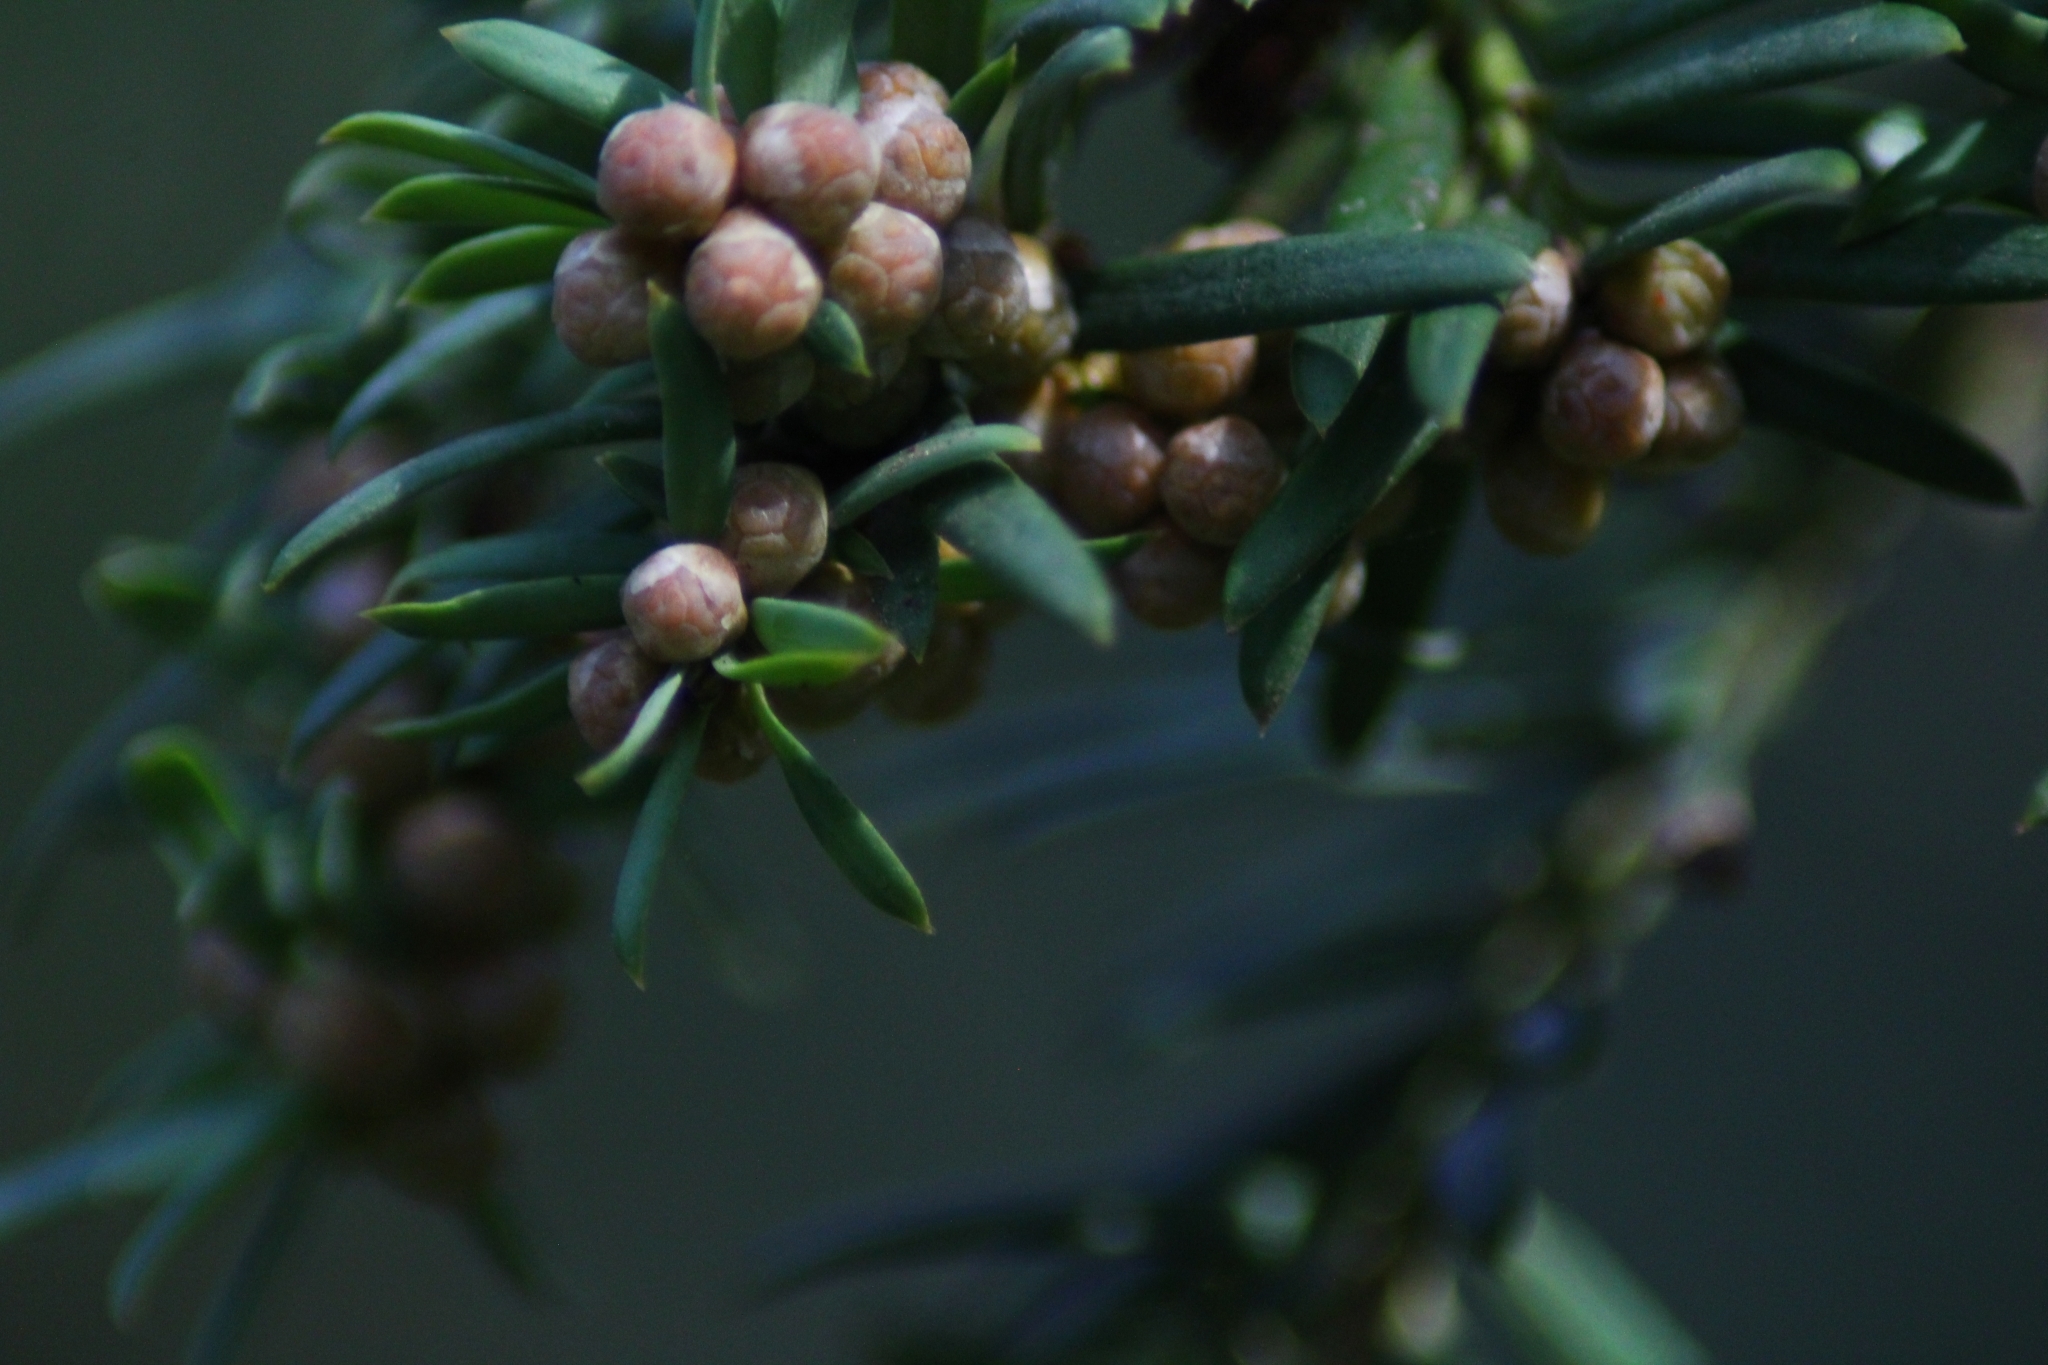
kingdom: Plantae
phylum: Tracheophyta
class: Pinopsida
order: Pinales
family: Taxaceae
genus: Taxus
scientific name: Taxus baccata
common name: Yew
